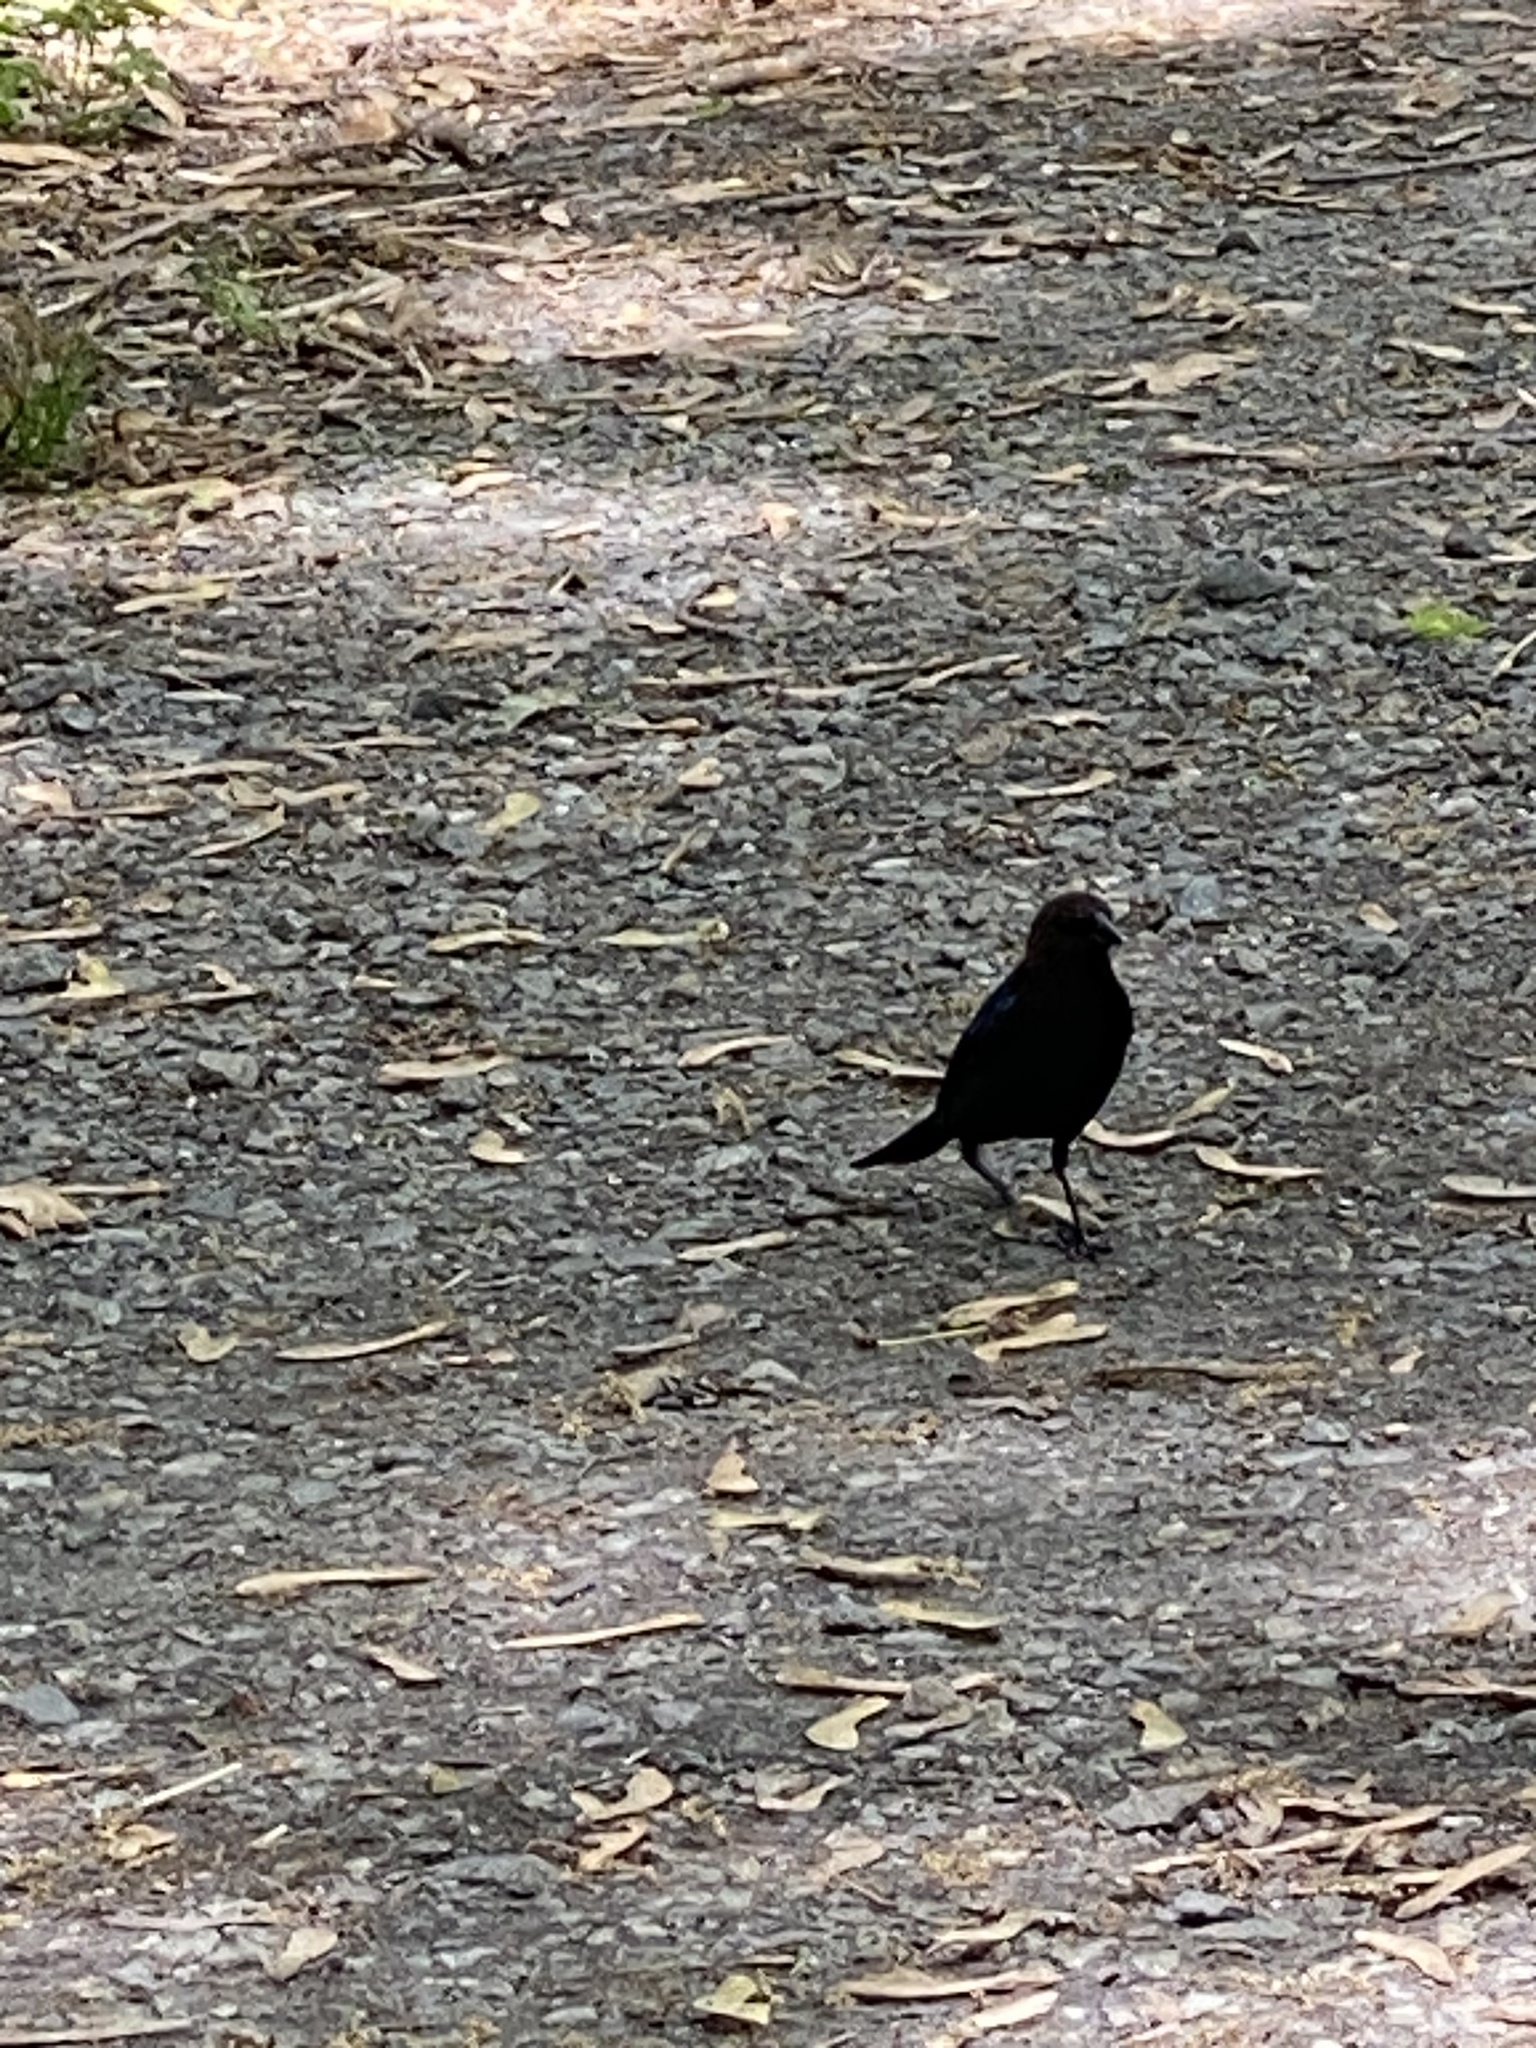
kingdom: Animalia
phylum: Chordata
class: Aves
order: Passeriformes
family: Icteridae
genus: Molothrus
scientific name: Molothrus ater
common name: Brown-headed cowbird
